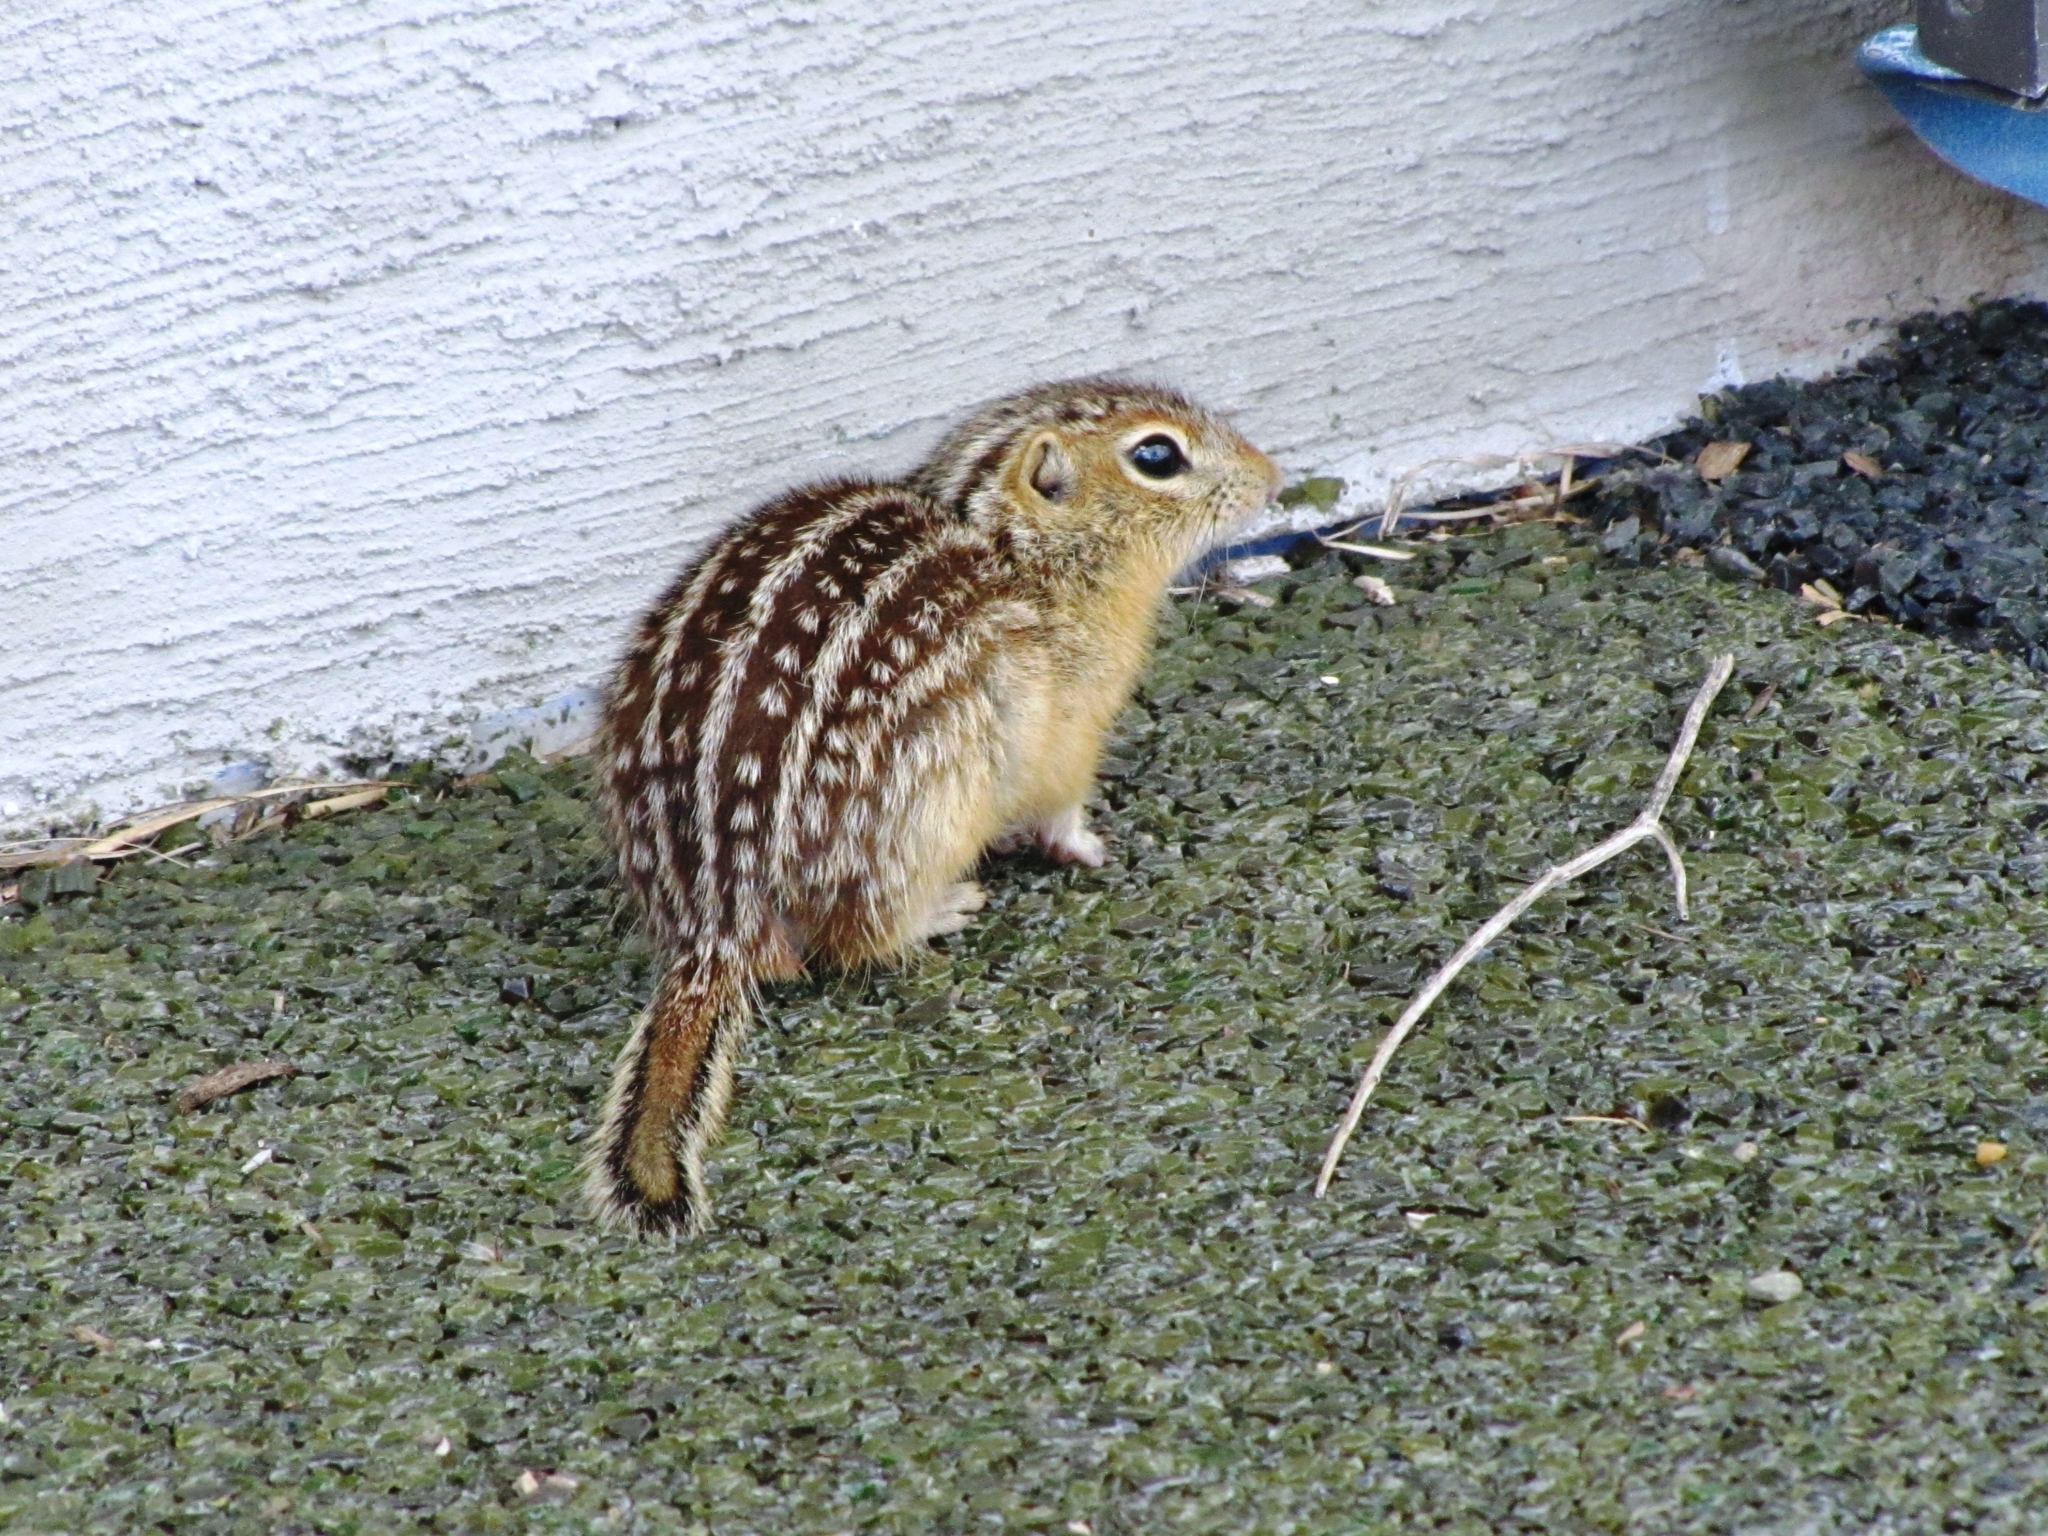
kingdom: Animalia
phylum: Chordata
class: Mammalia
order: Rodentia
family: Sciuridae
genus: Ictidomys
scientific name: Ictidomys tridecemlineatus
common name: Thirteen-lined ground squirrel
